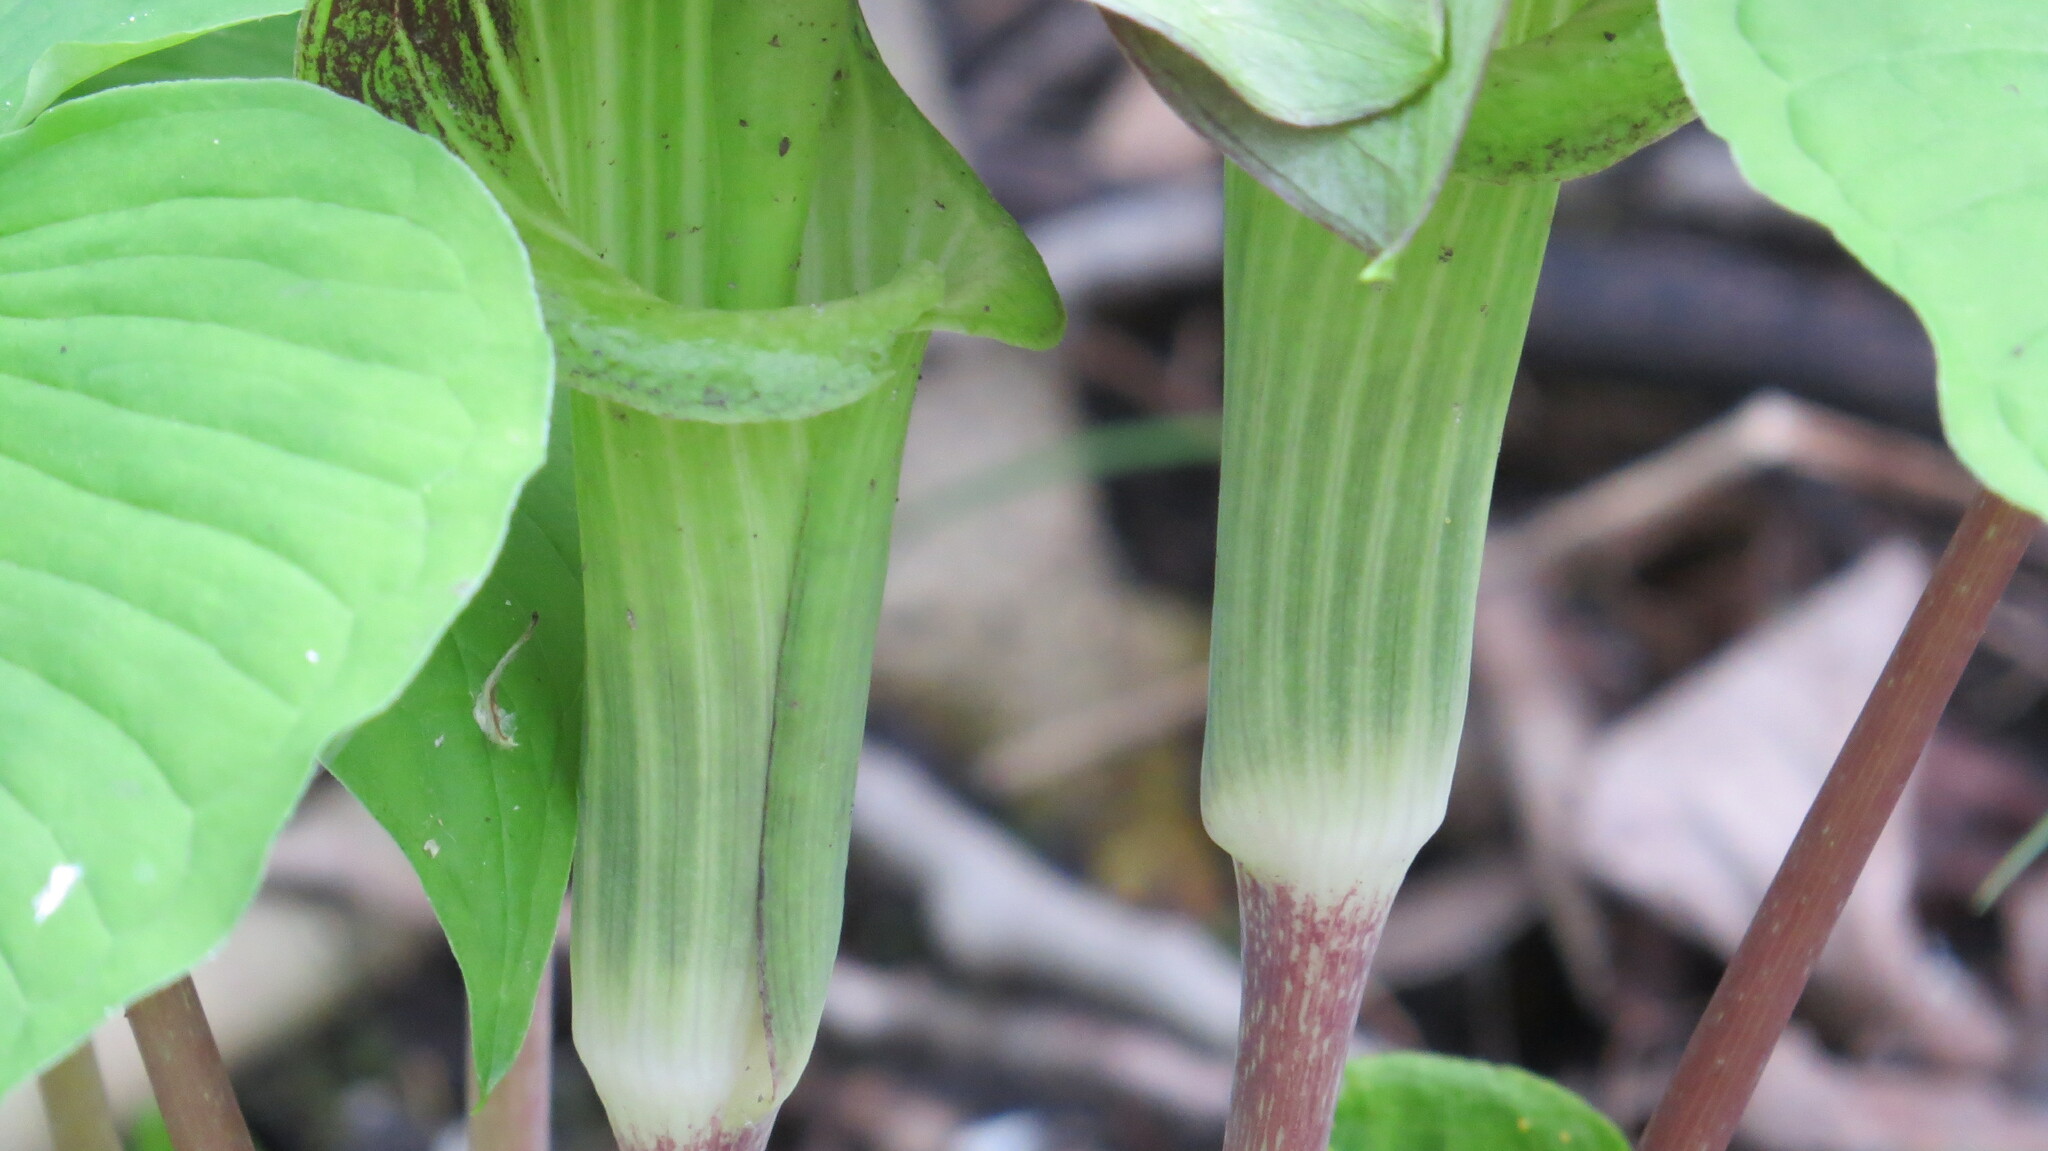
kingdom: Plantae
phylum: Tracheophyta
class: Liliopsida
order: Alismatales
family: Araceae
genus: Arisaema
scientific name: Arisaema triphyllum
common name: Jack-in-the-pulpit
